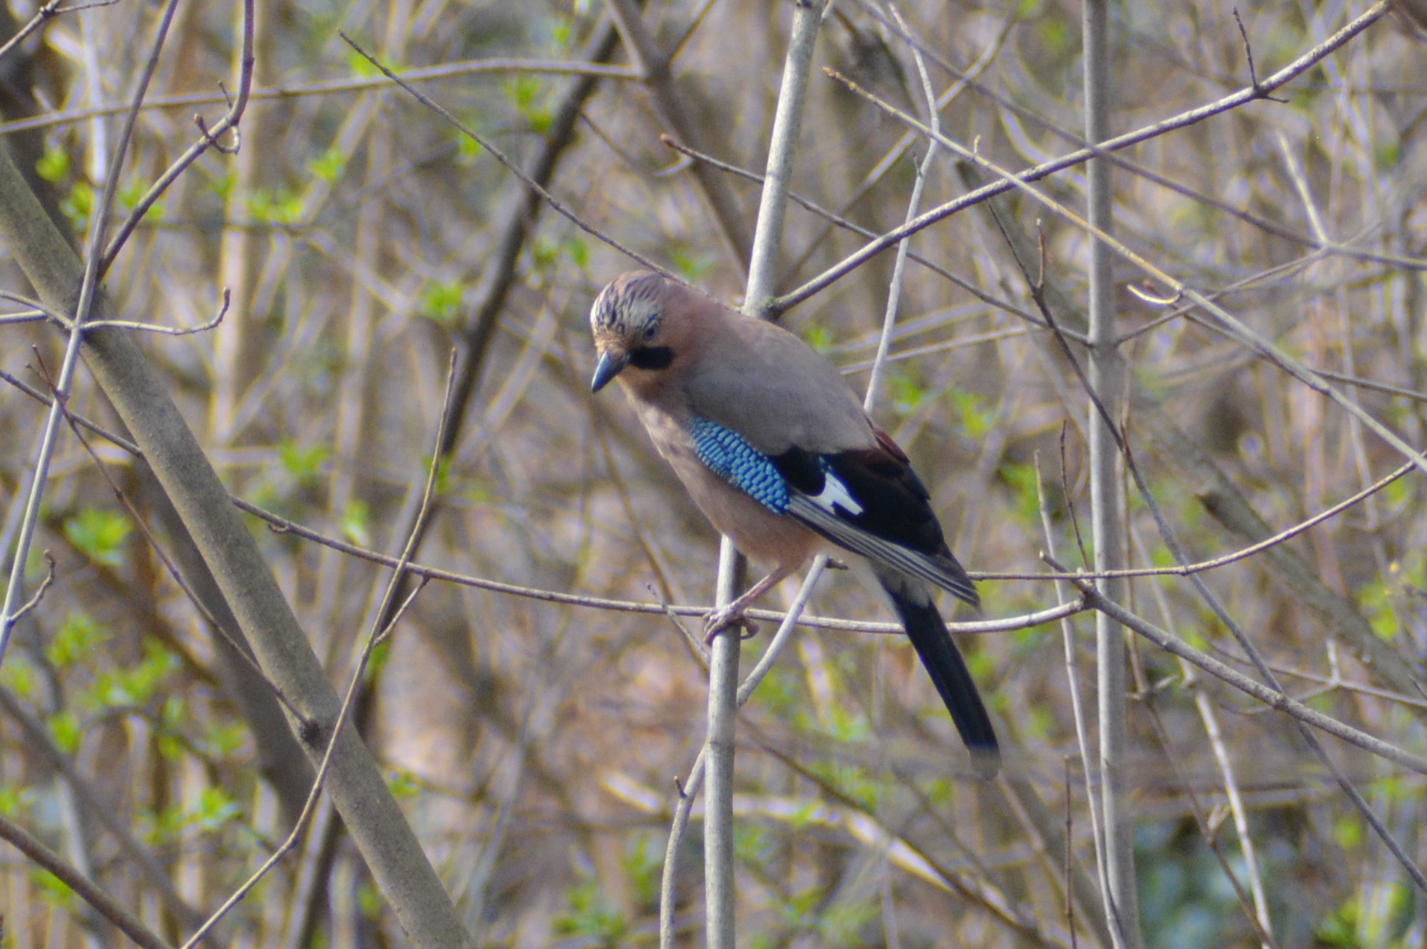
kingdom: Animalia
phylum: Chordata
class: Aves
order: Passeriformes
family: Corvidae
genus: Garrulus
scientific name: Garrulus glandarius
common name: Eurasian jay
